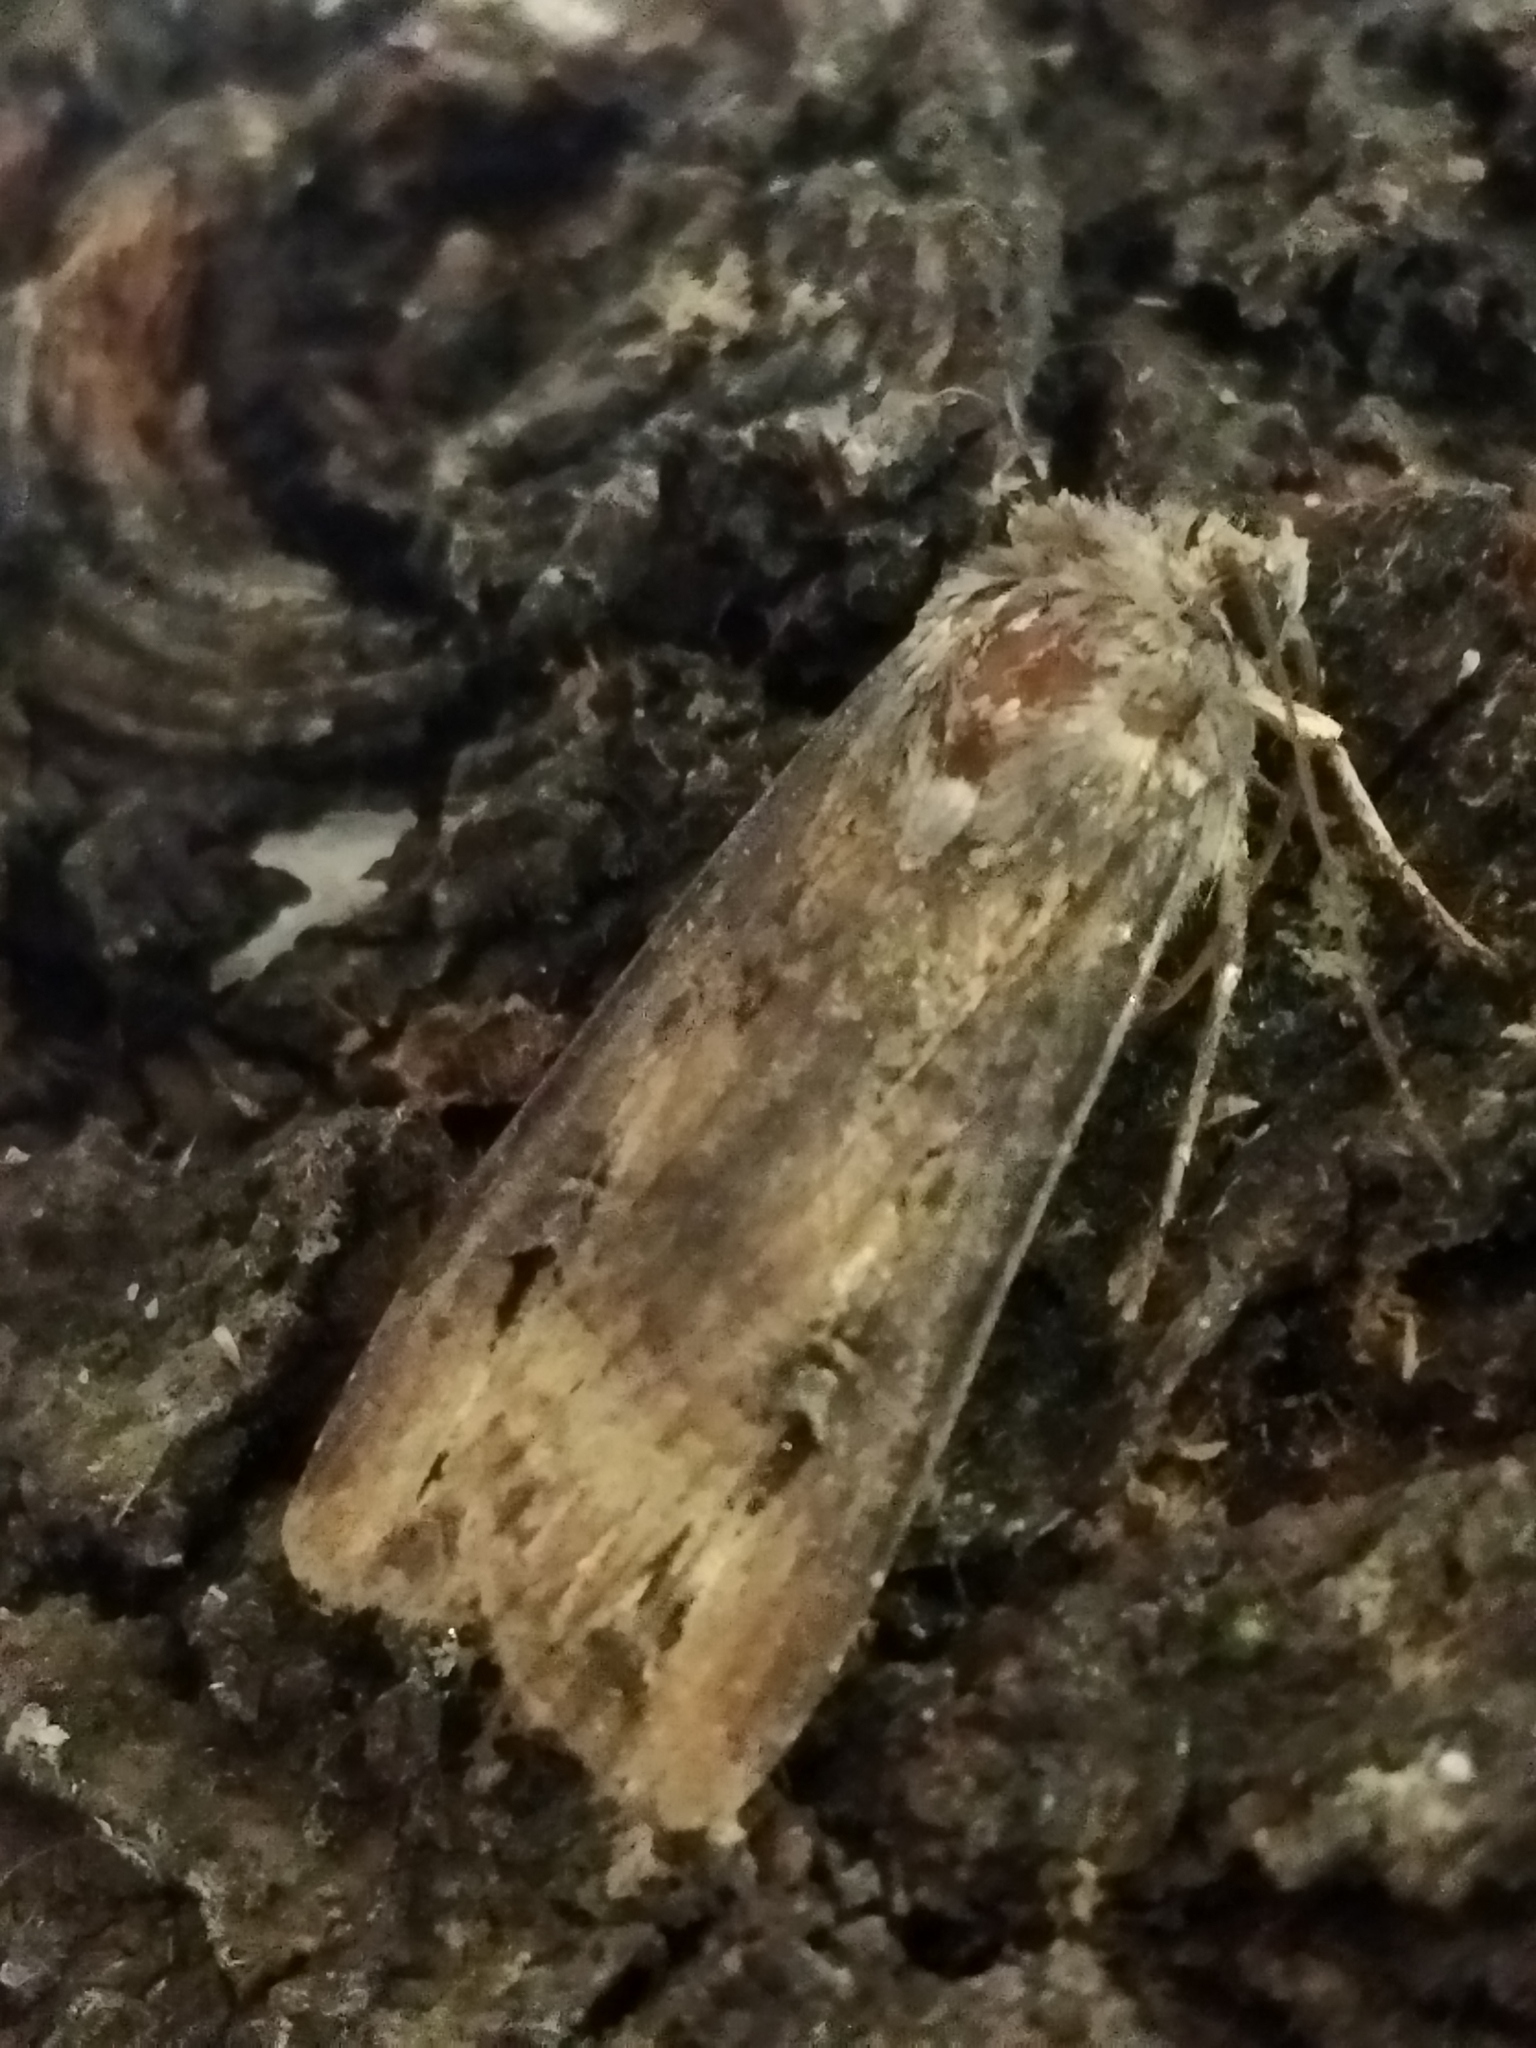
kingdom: Animalia
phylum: Arthropoda
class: Insecta
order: Lepidoptera
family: Noctuidae
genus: Agrotis
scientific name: Agrotis ipsilon
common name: Dark sword-grass
